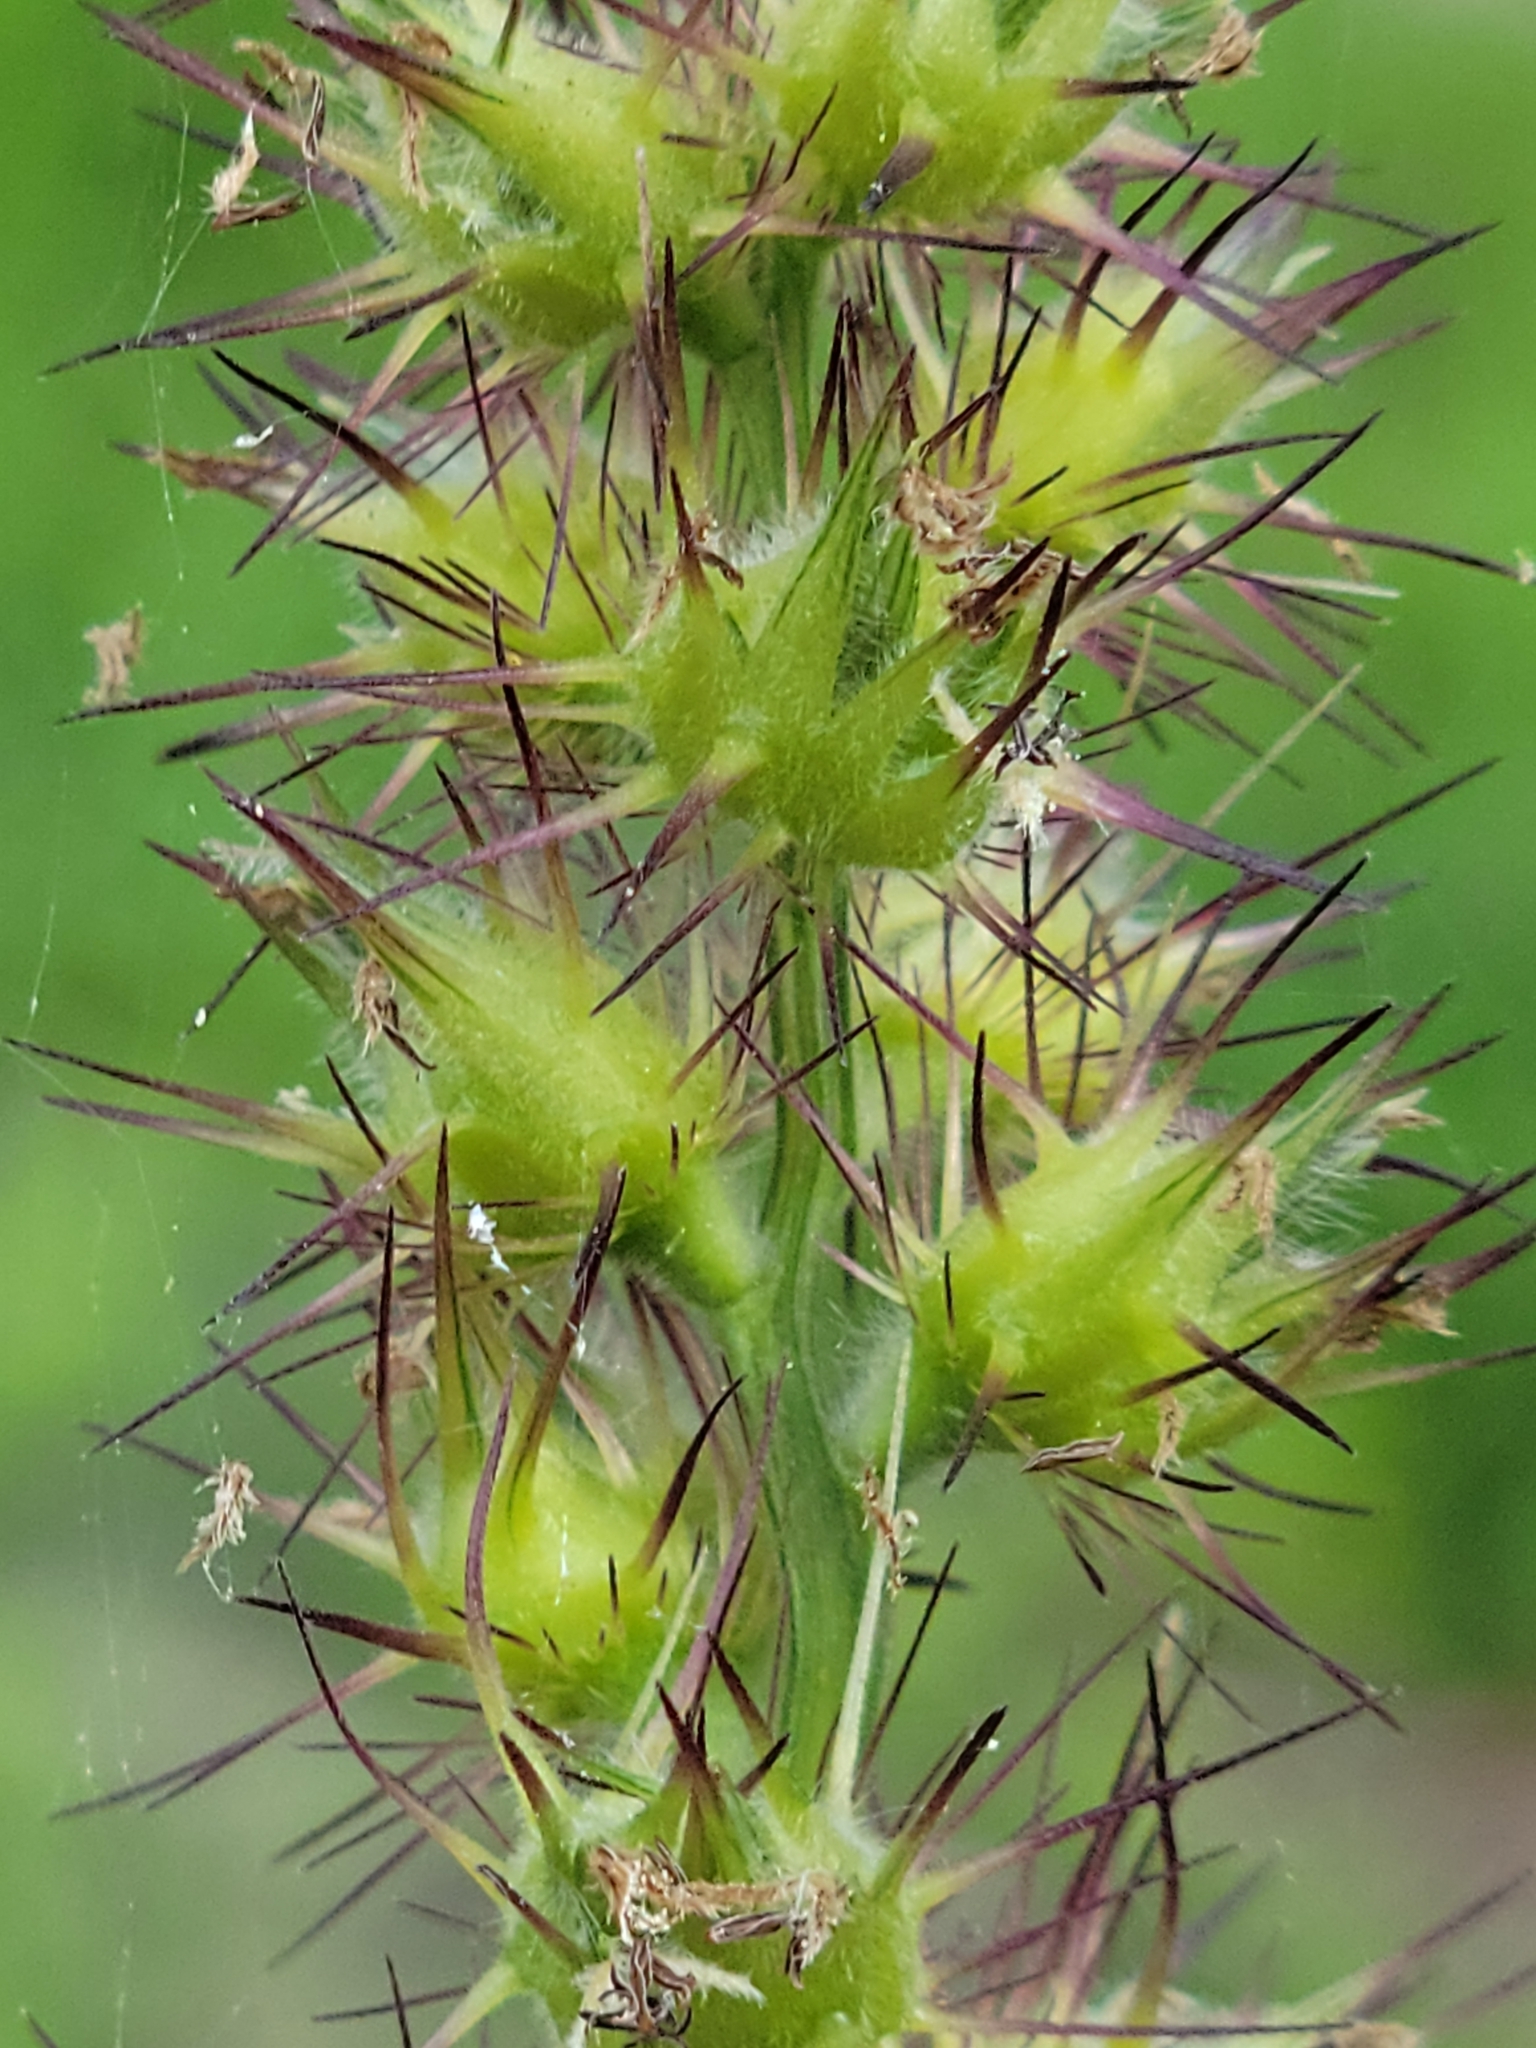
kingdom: Plantae
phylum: Tracheophyta
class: Liliopsida
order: Poales
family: Poaceae
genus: Cenchrus
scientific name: Cenchrus echinatus
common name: Southern sandbur
